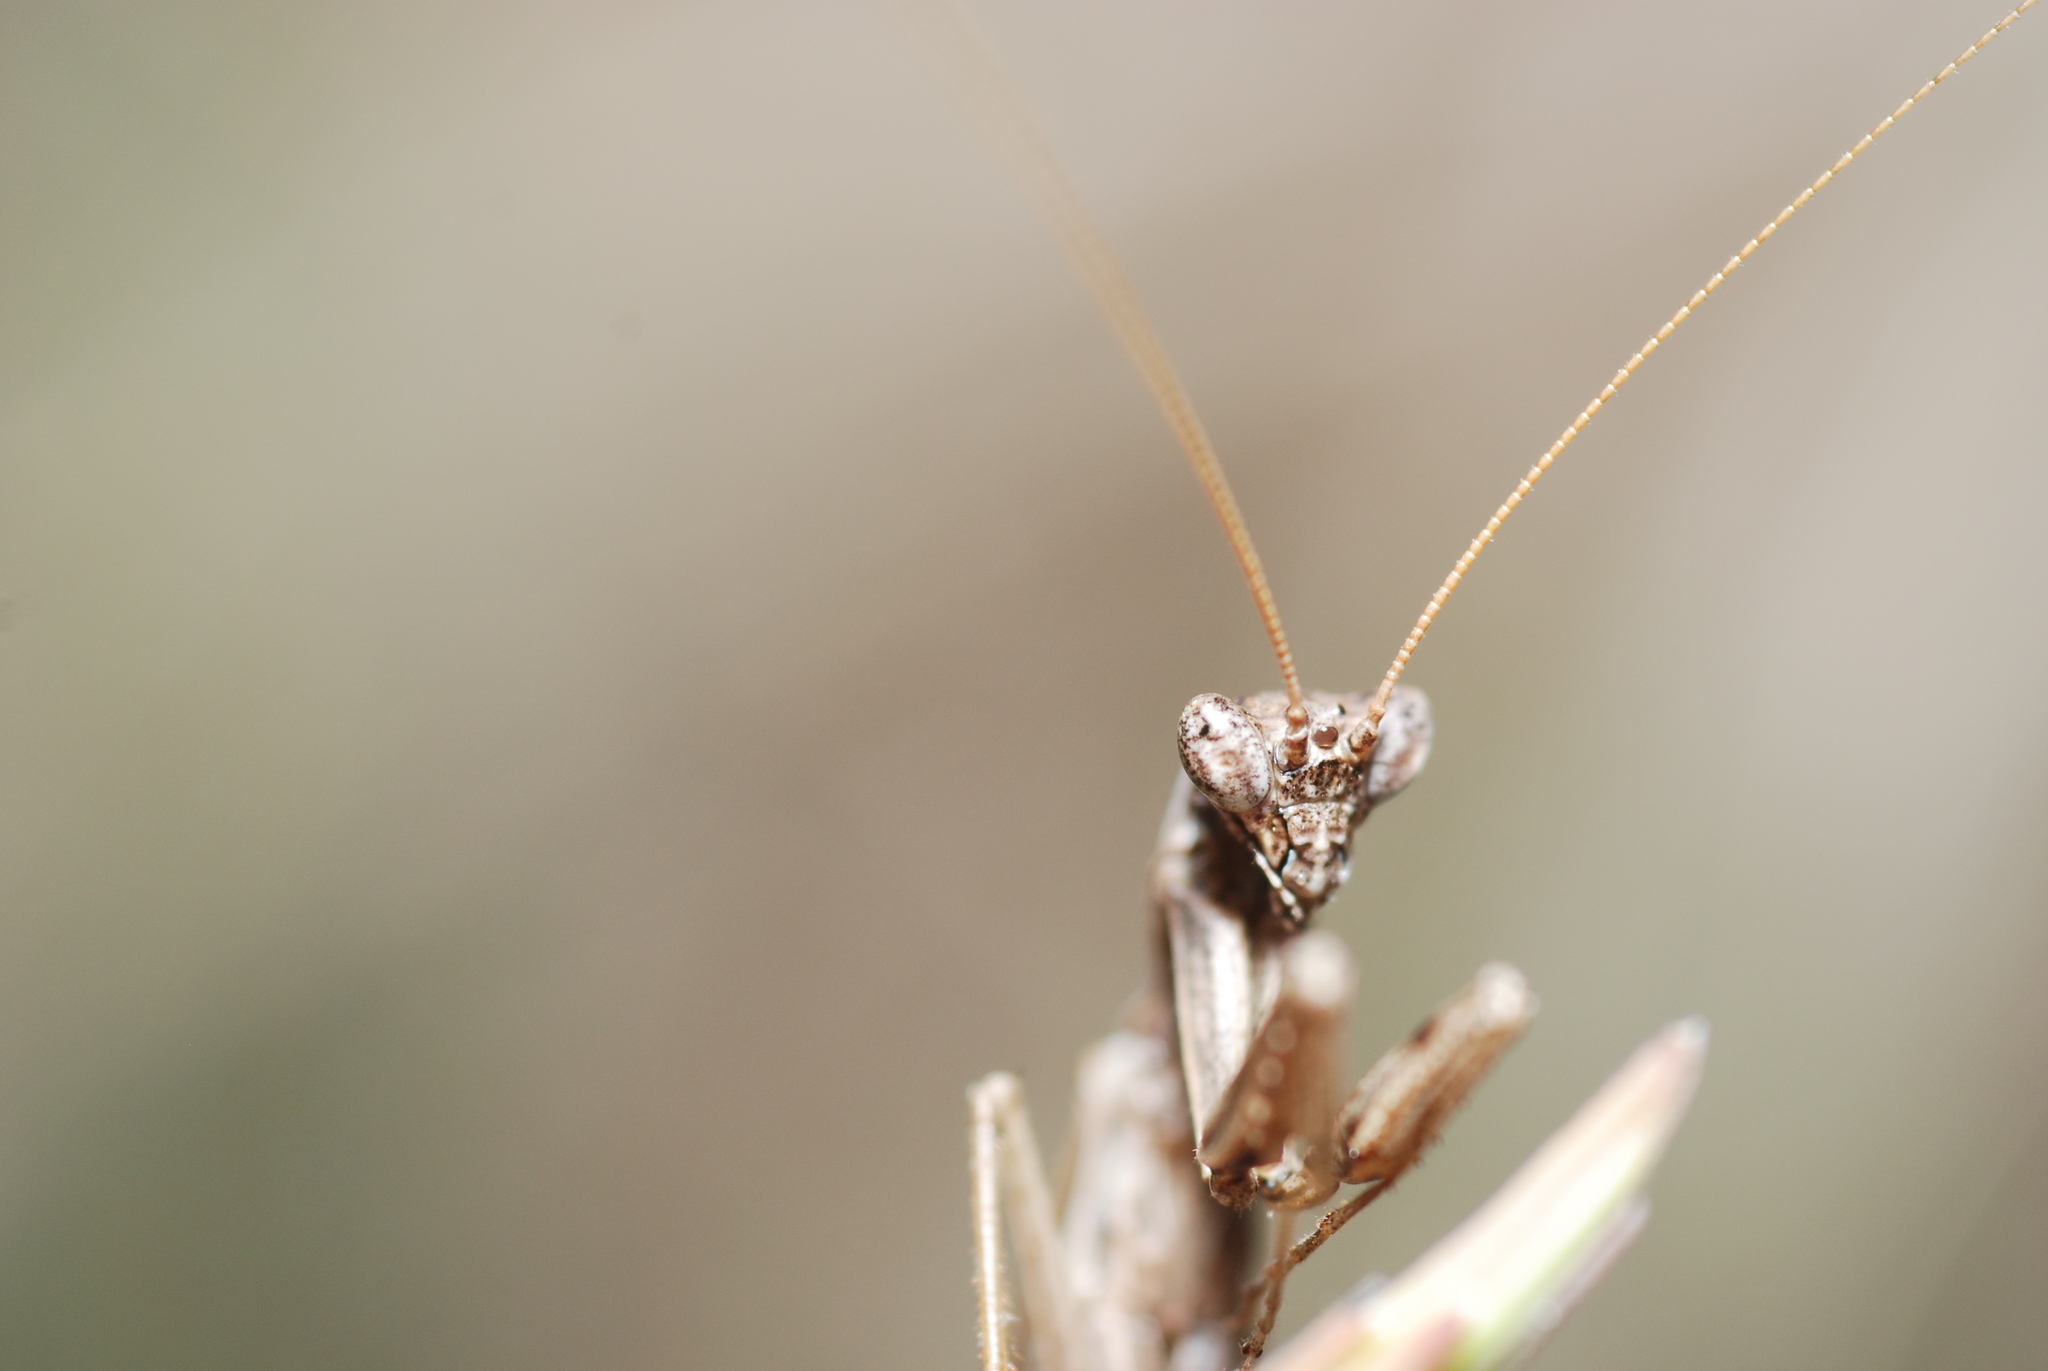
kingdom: Animalia
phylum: Arthropoda
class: Insecta
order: Mantodea
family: Amelidae
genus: Ameles
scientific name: Ameles decolor
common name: Dwarf mantis
